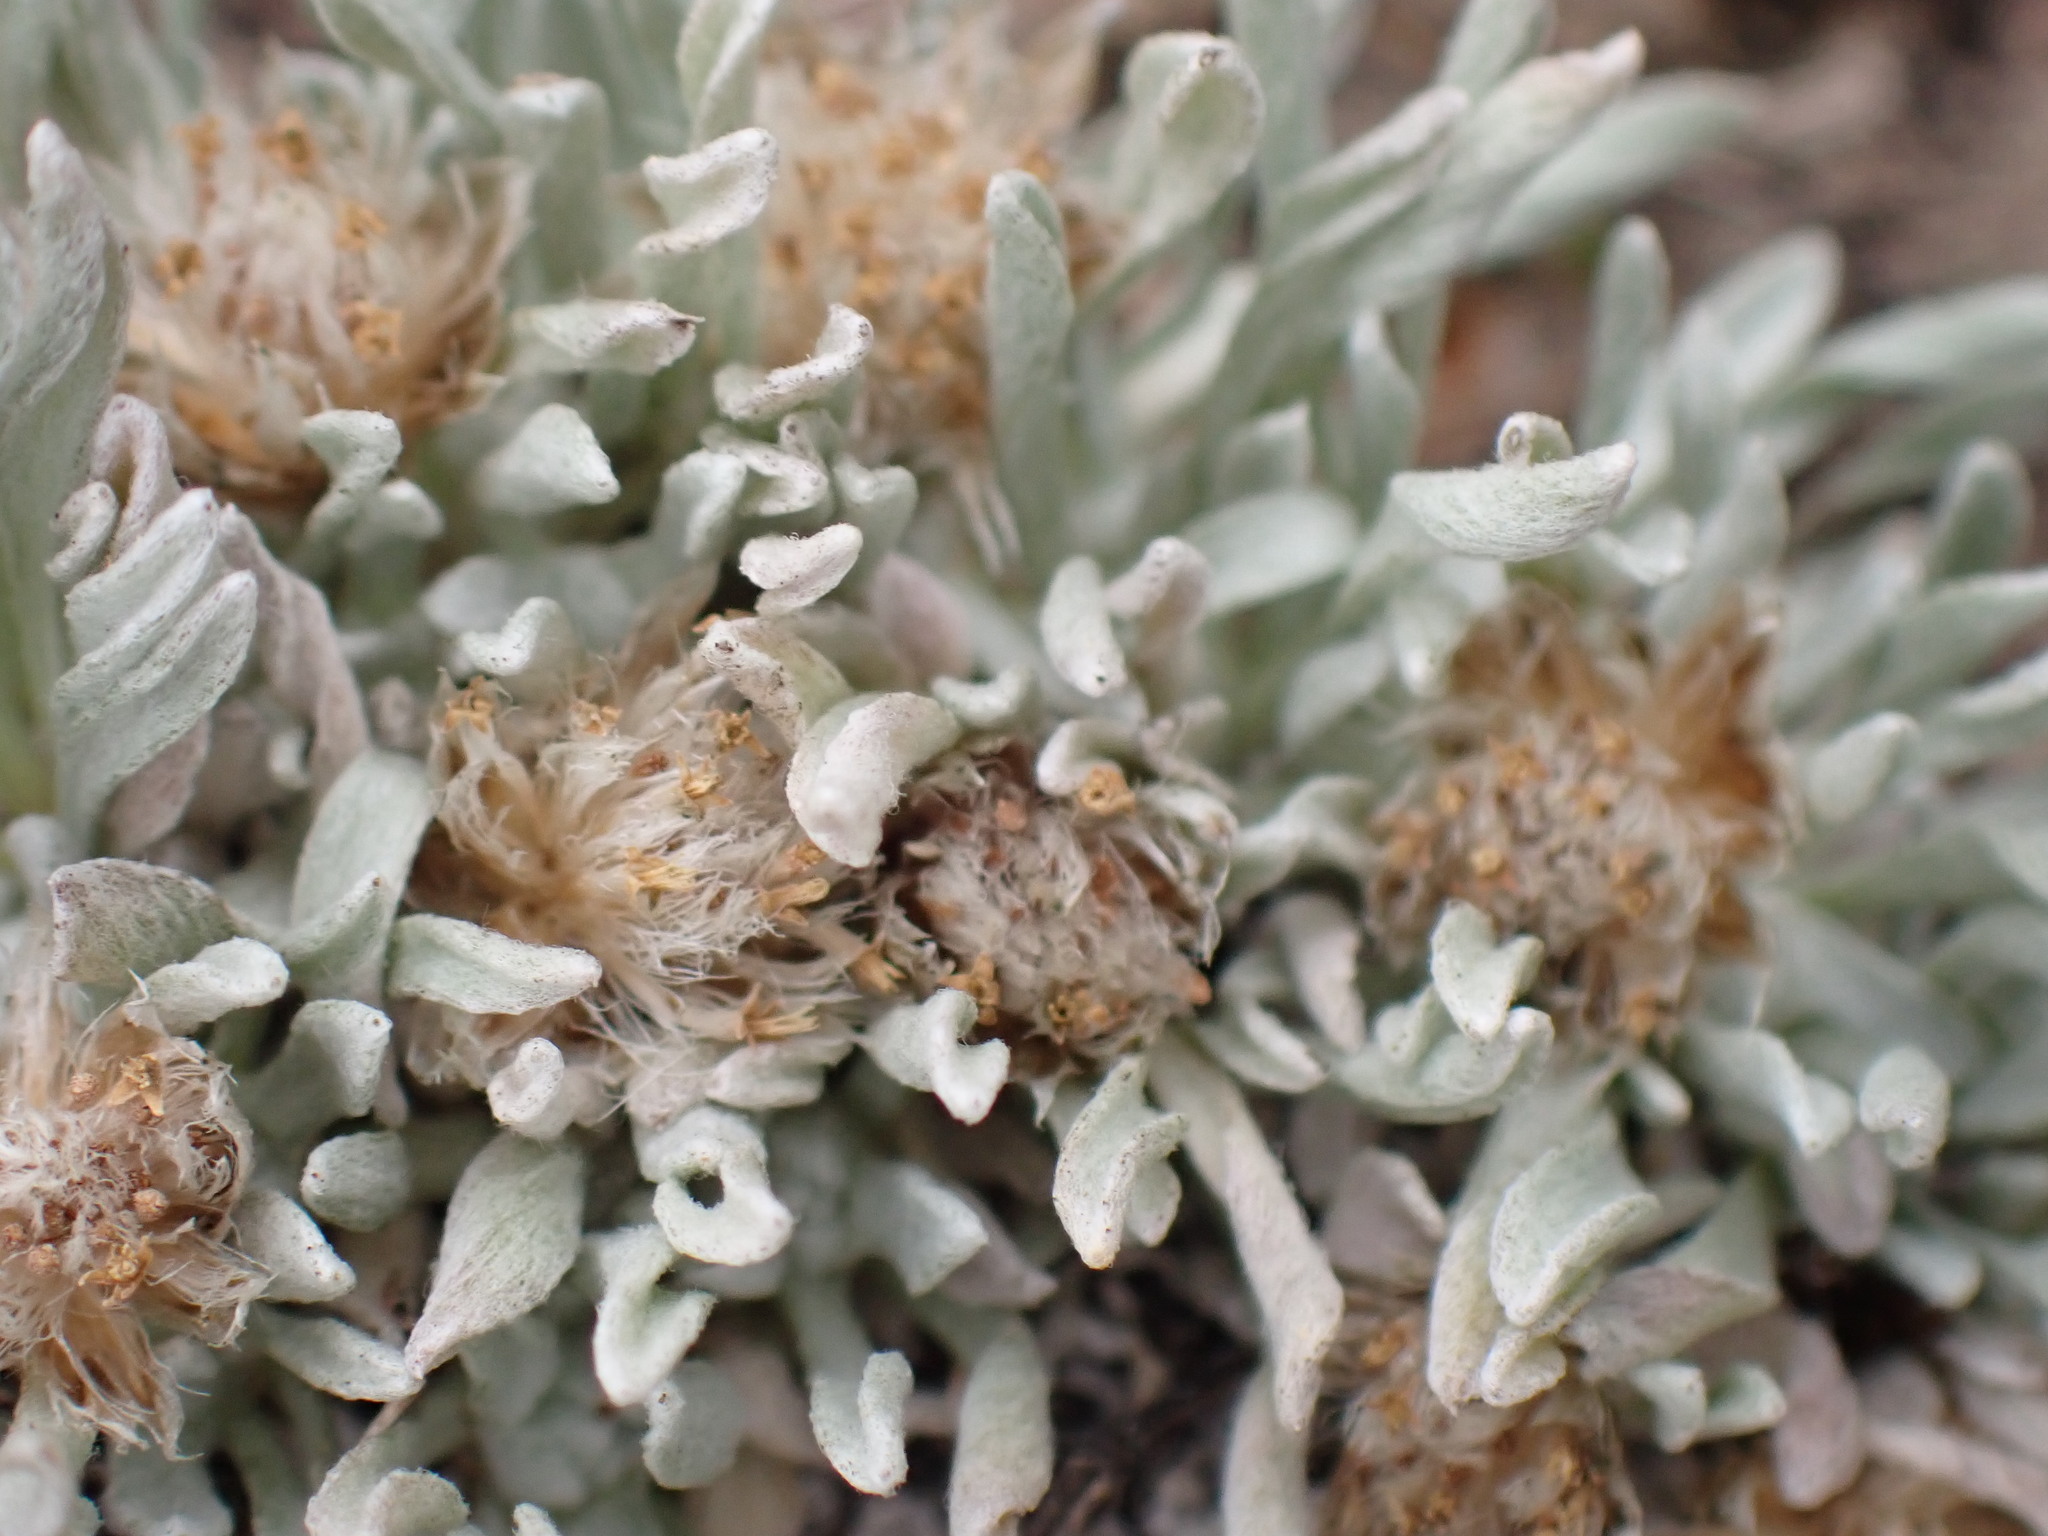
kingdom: Plantae
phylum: Tracheophyta
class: Magnoliopsida
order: Asterales
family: Asteraceae
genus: Antennaria
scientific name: Antennaria dimorpha
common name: Cushion pussytoes
